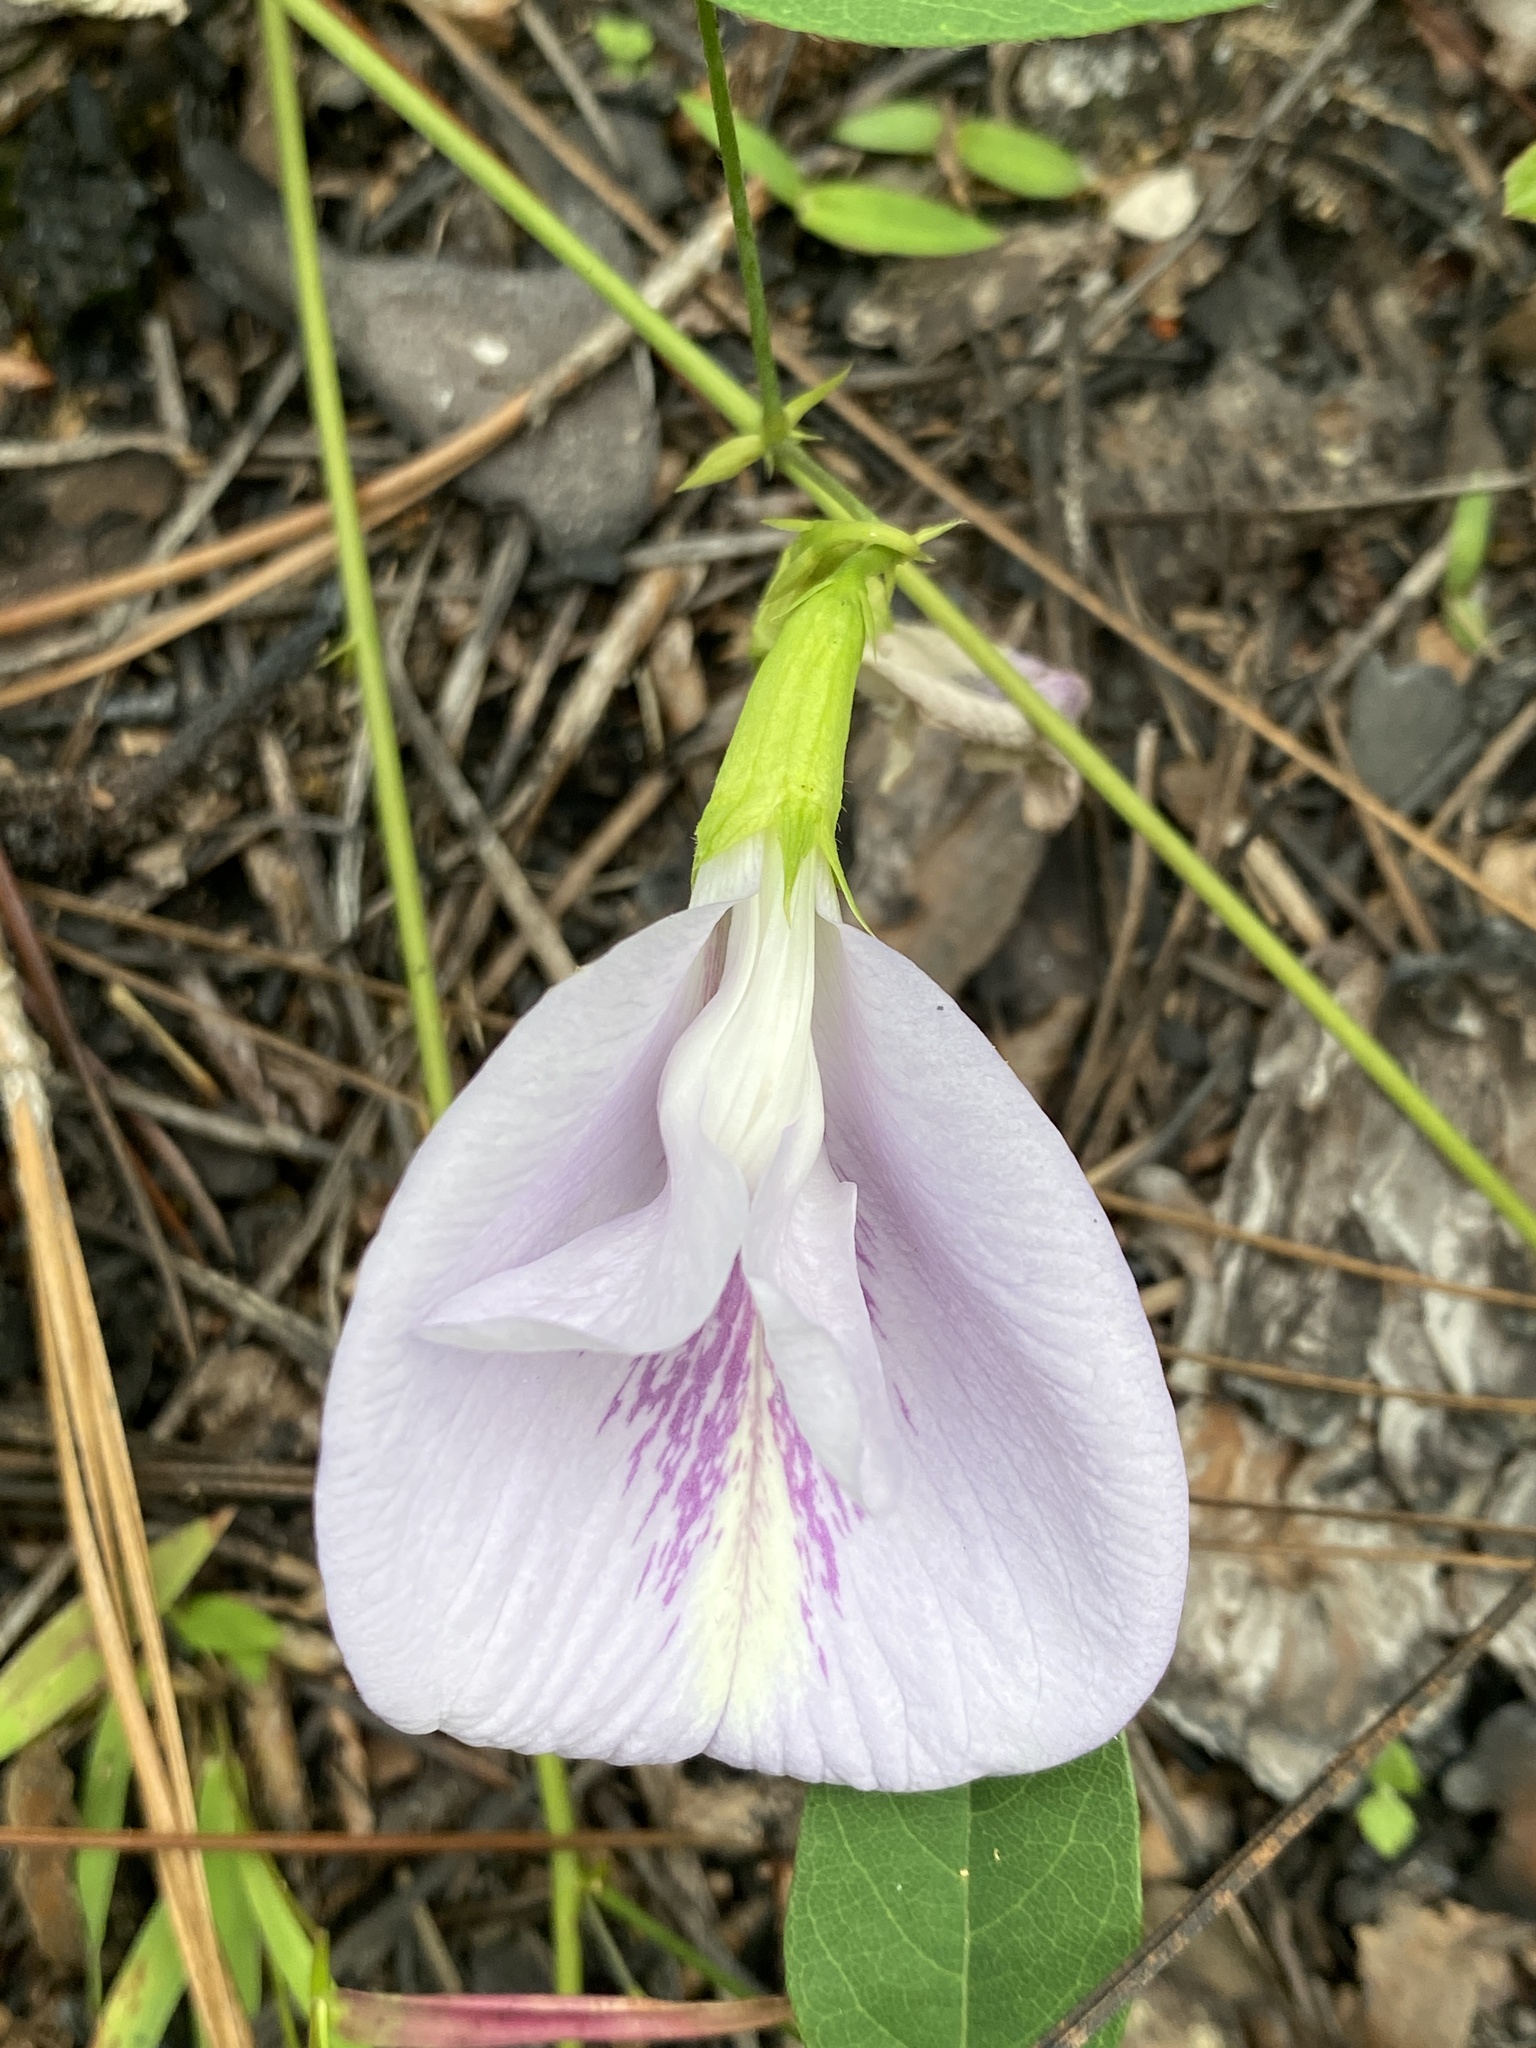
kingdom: Plantae
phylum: Tracheophyta
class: Magnoliopsida
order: Fabales
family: Fabaceae
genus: Clitoria
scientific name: Clitoria mariana
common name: Butterfly-pea
